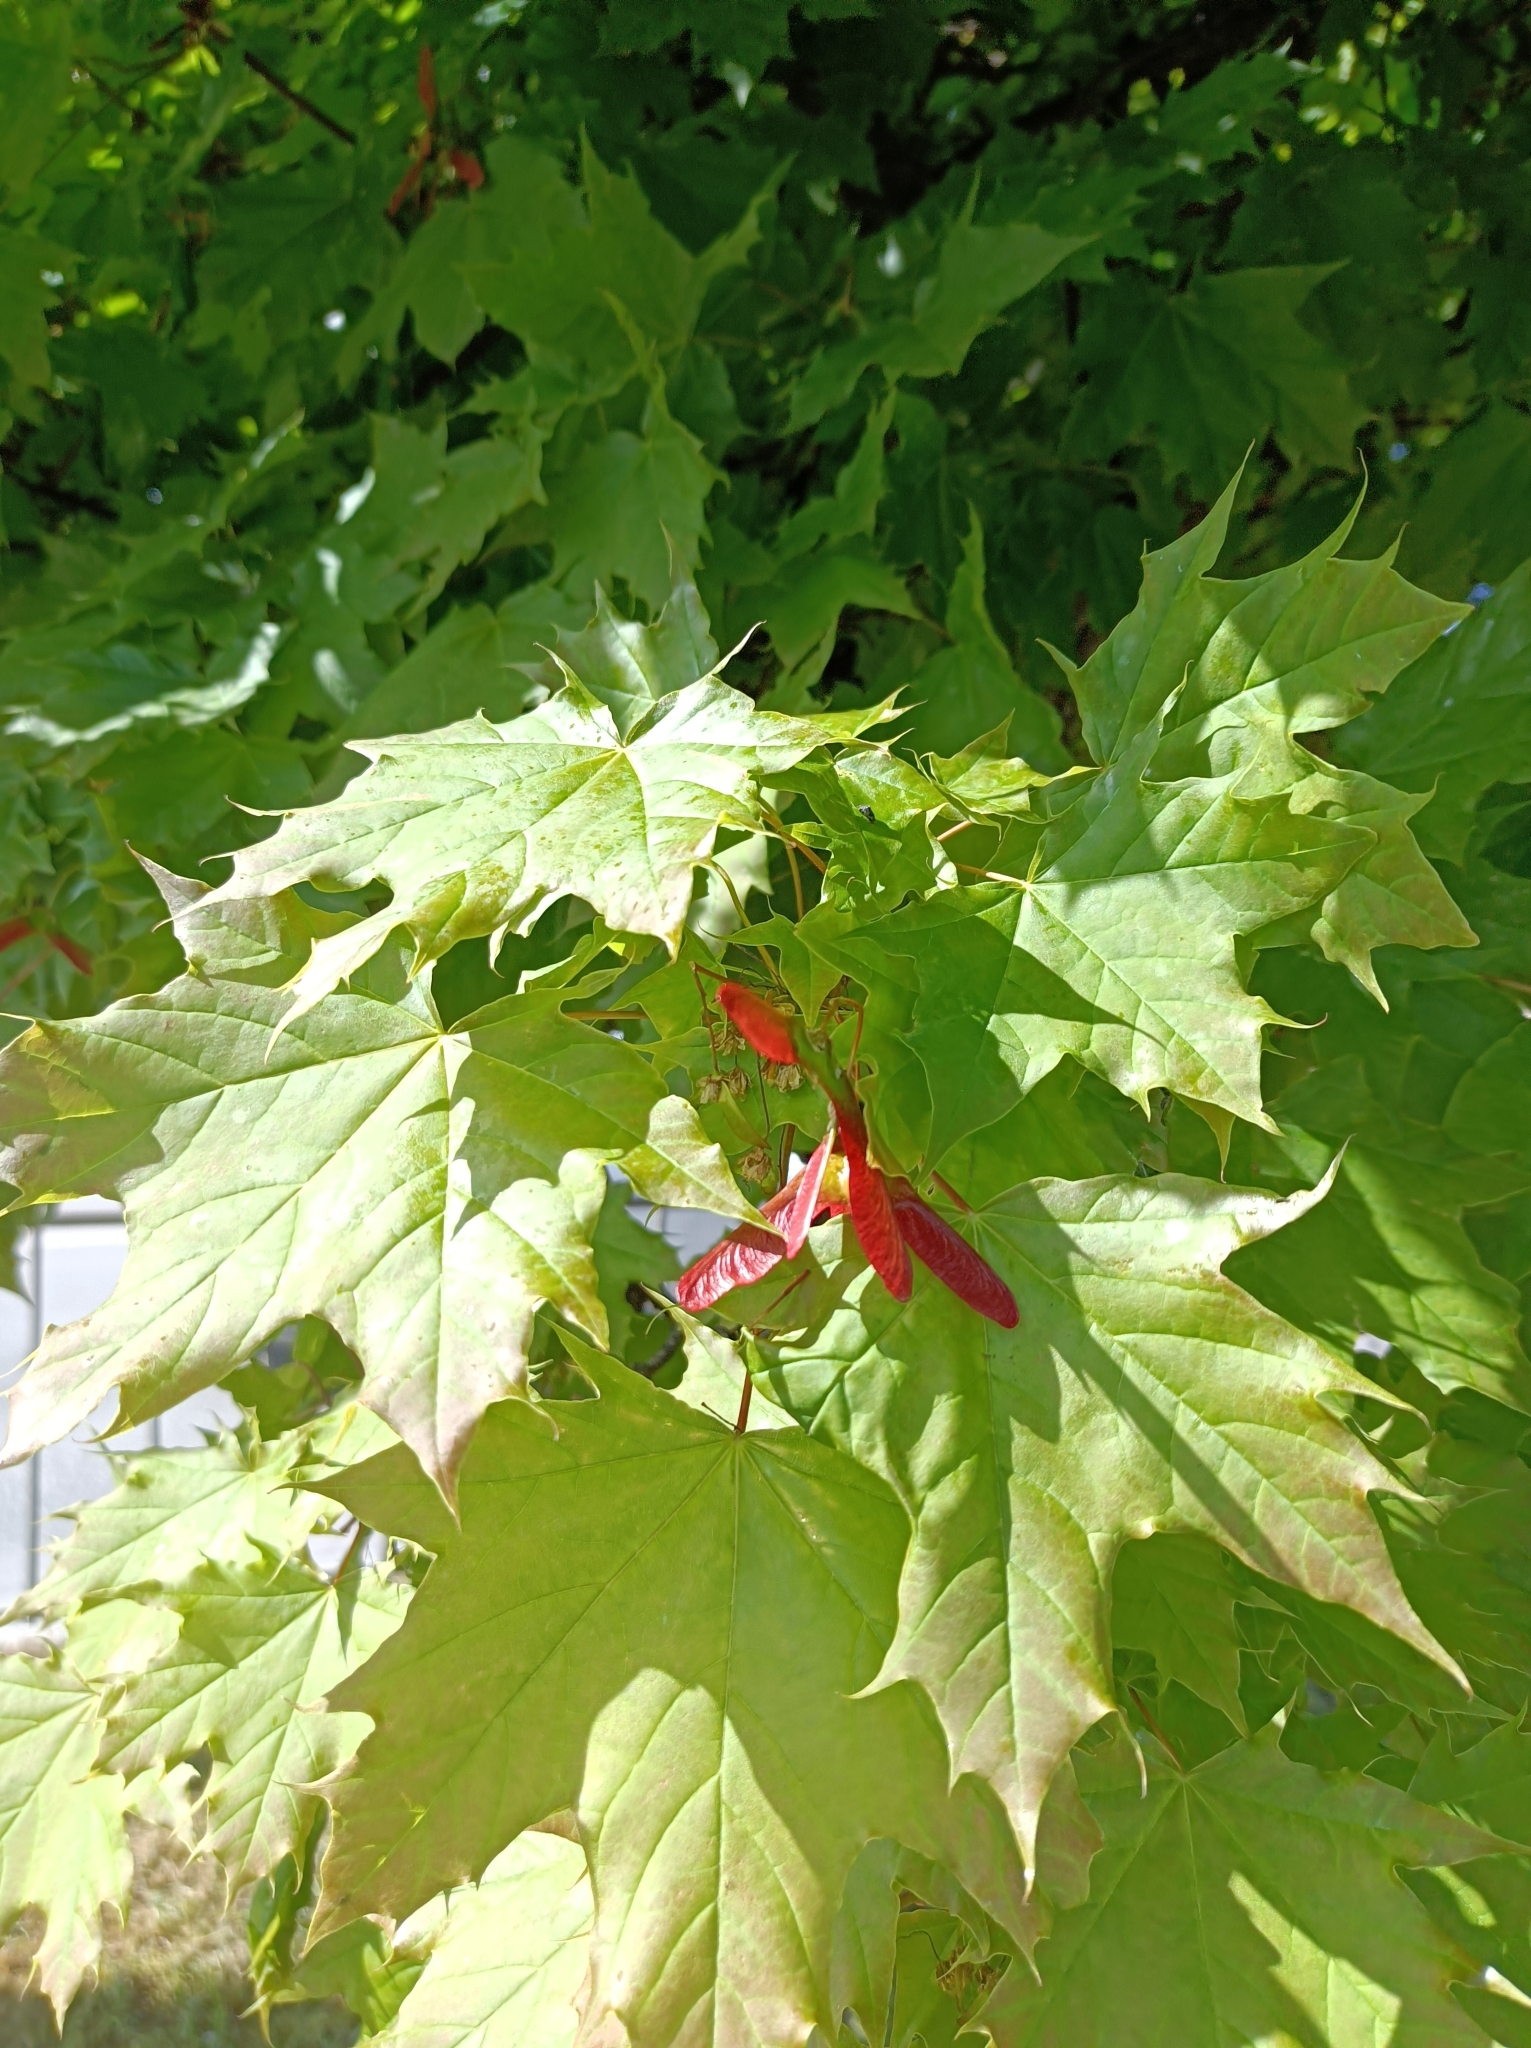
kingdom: Plantae
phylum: Tracheophyta
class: Magnoliopsida
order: Sapindales
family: Sapindaceae
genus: Acer
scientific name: Acer platanoides
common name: Norway maple
